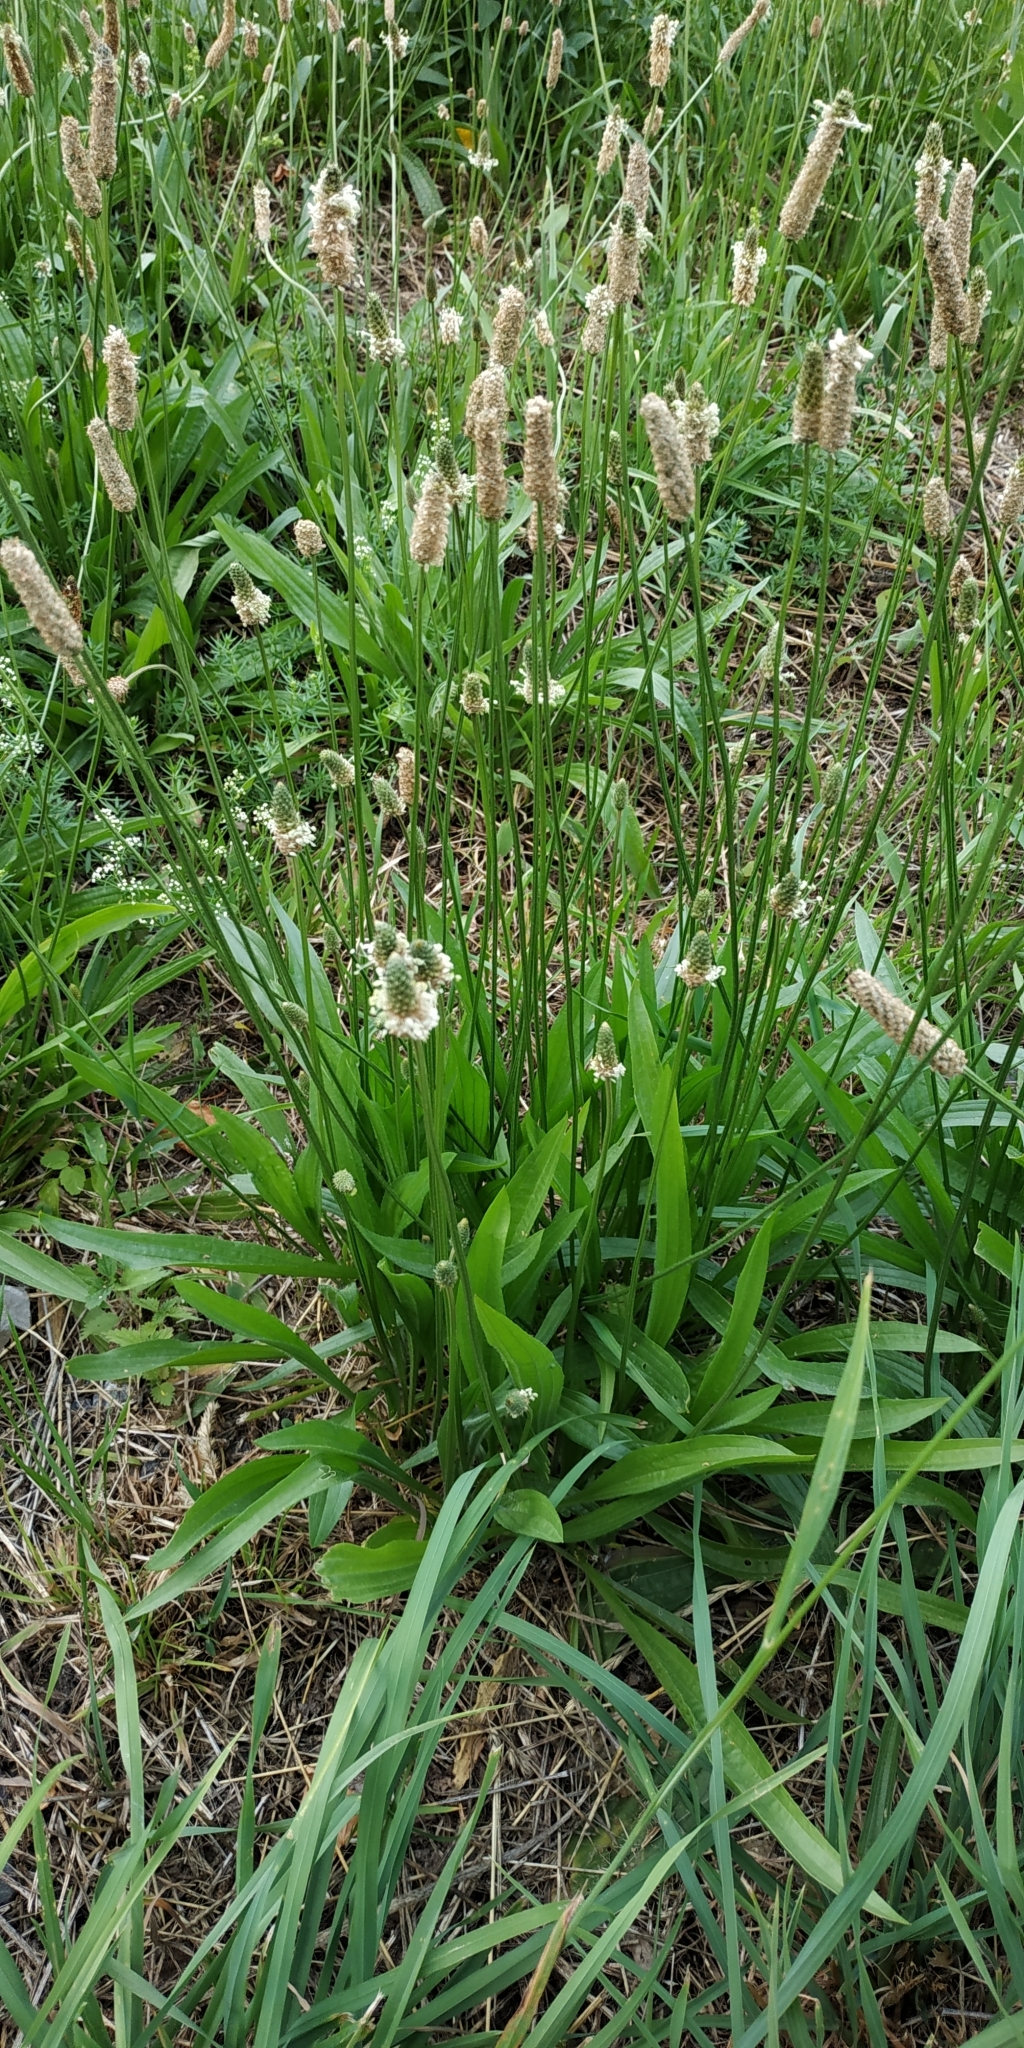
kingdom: Plantae
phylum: Tracheophyta
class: Magnoliopsida
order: Lamiales
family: Plantaginaceae
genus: Plantago
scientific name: Plantago lanceolata
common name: Ribwort plantain
